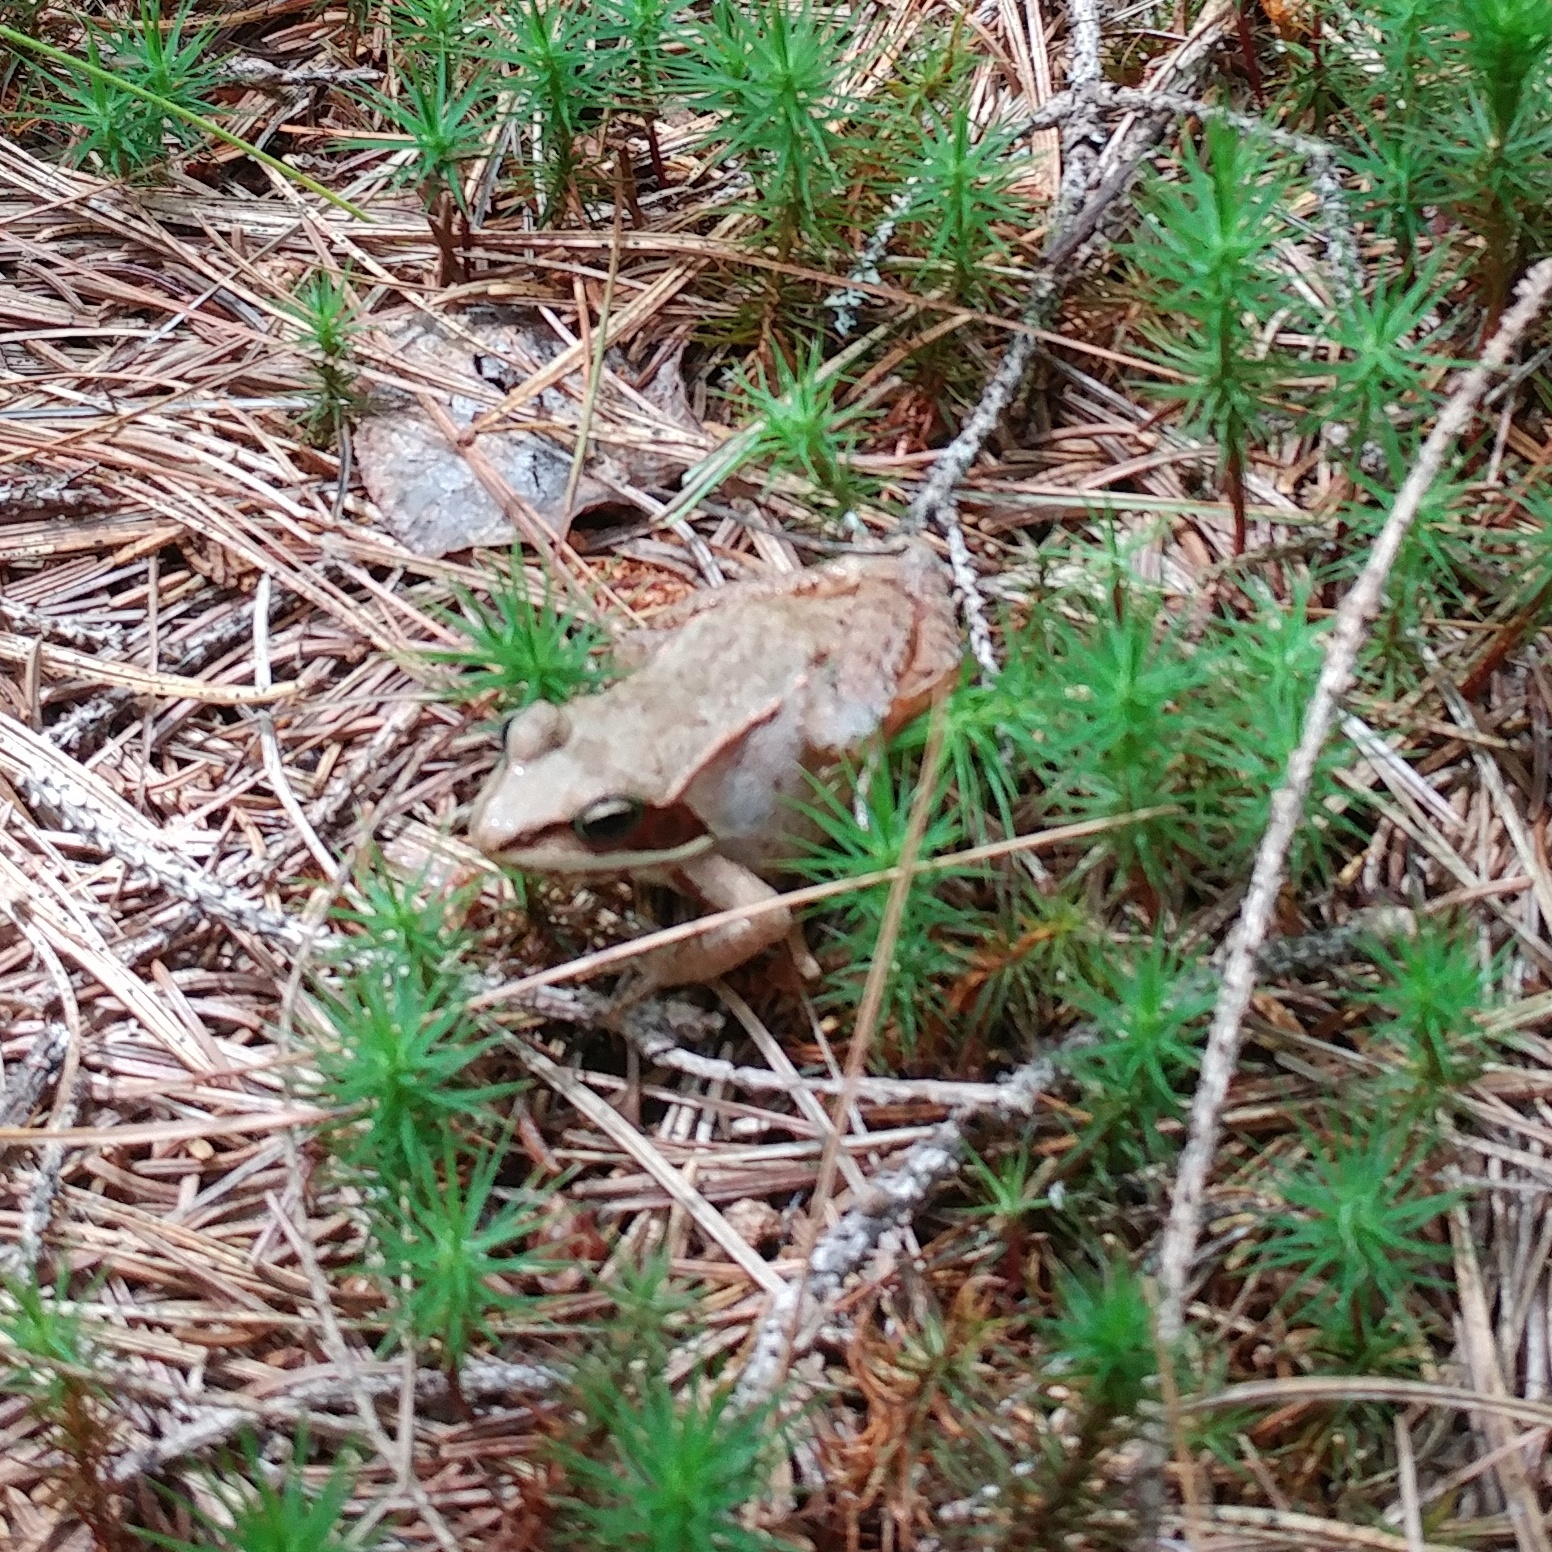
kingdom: Animalia
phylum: Chordata
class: Amphibia
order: Anura
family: Ranidae
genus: Lithobates
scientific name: Lithobates sylvaticus
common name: Wood frog
